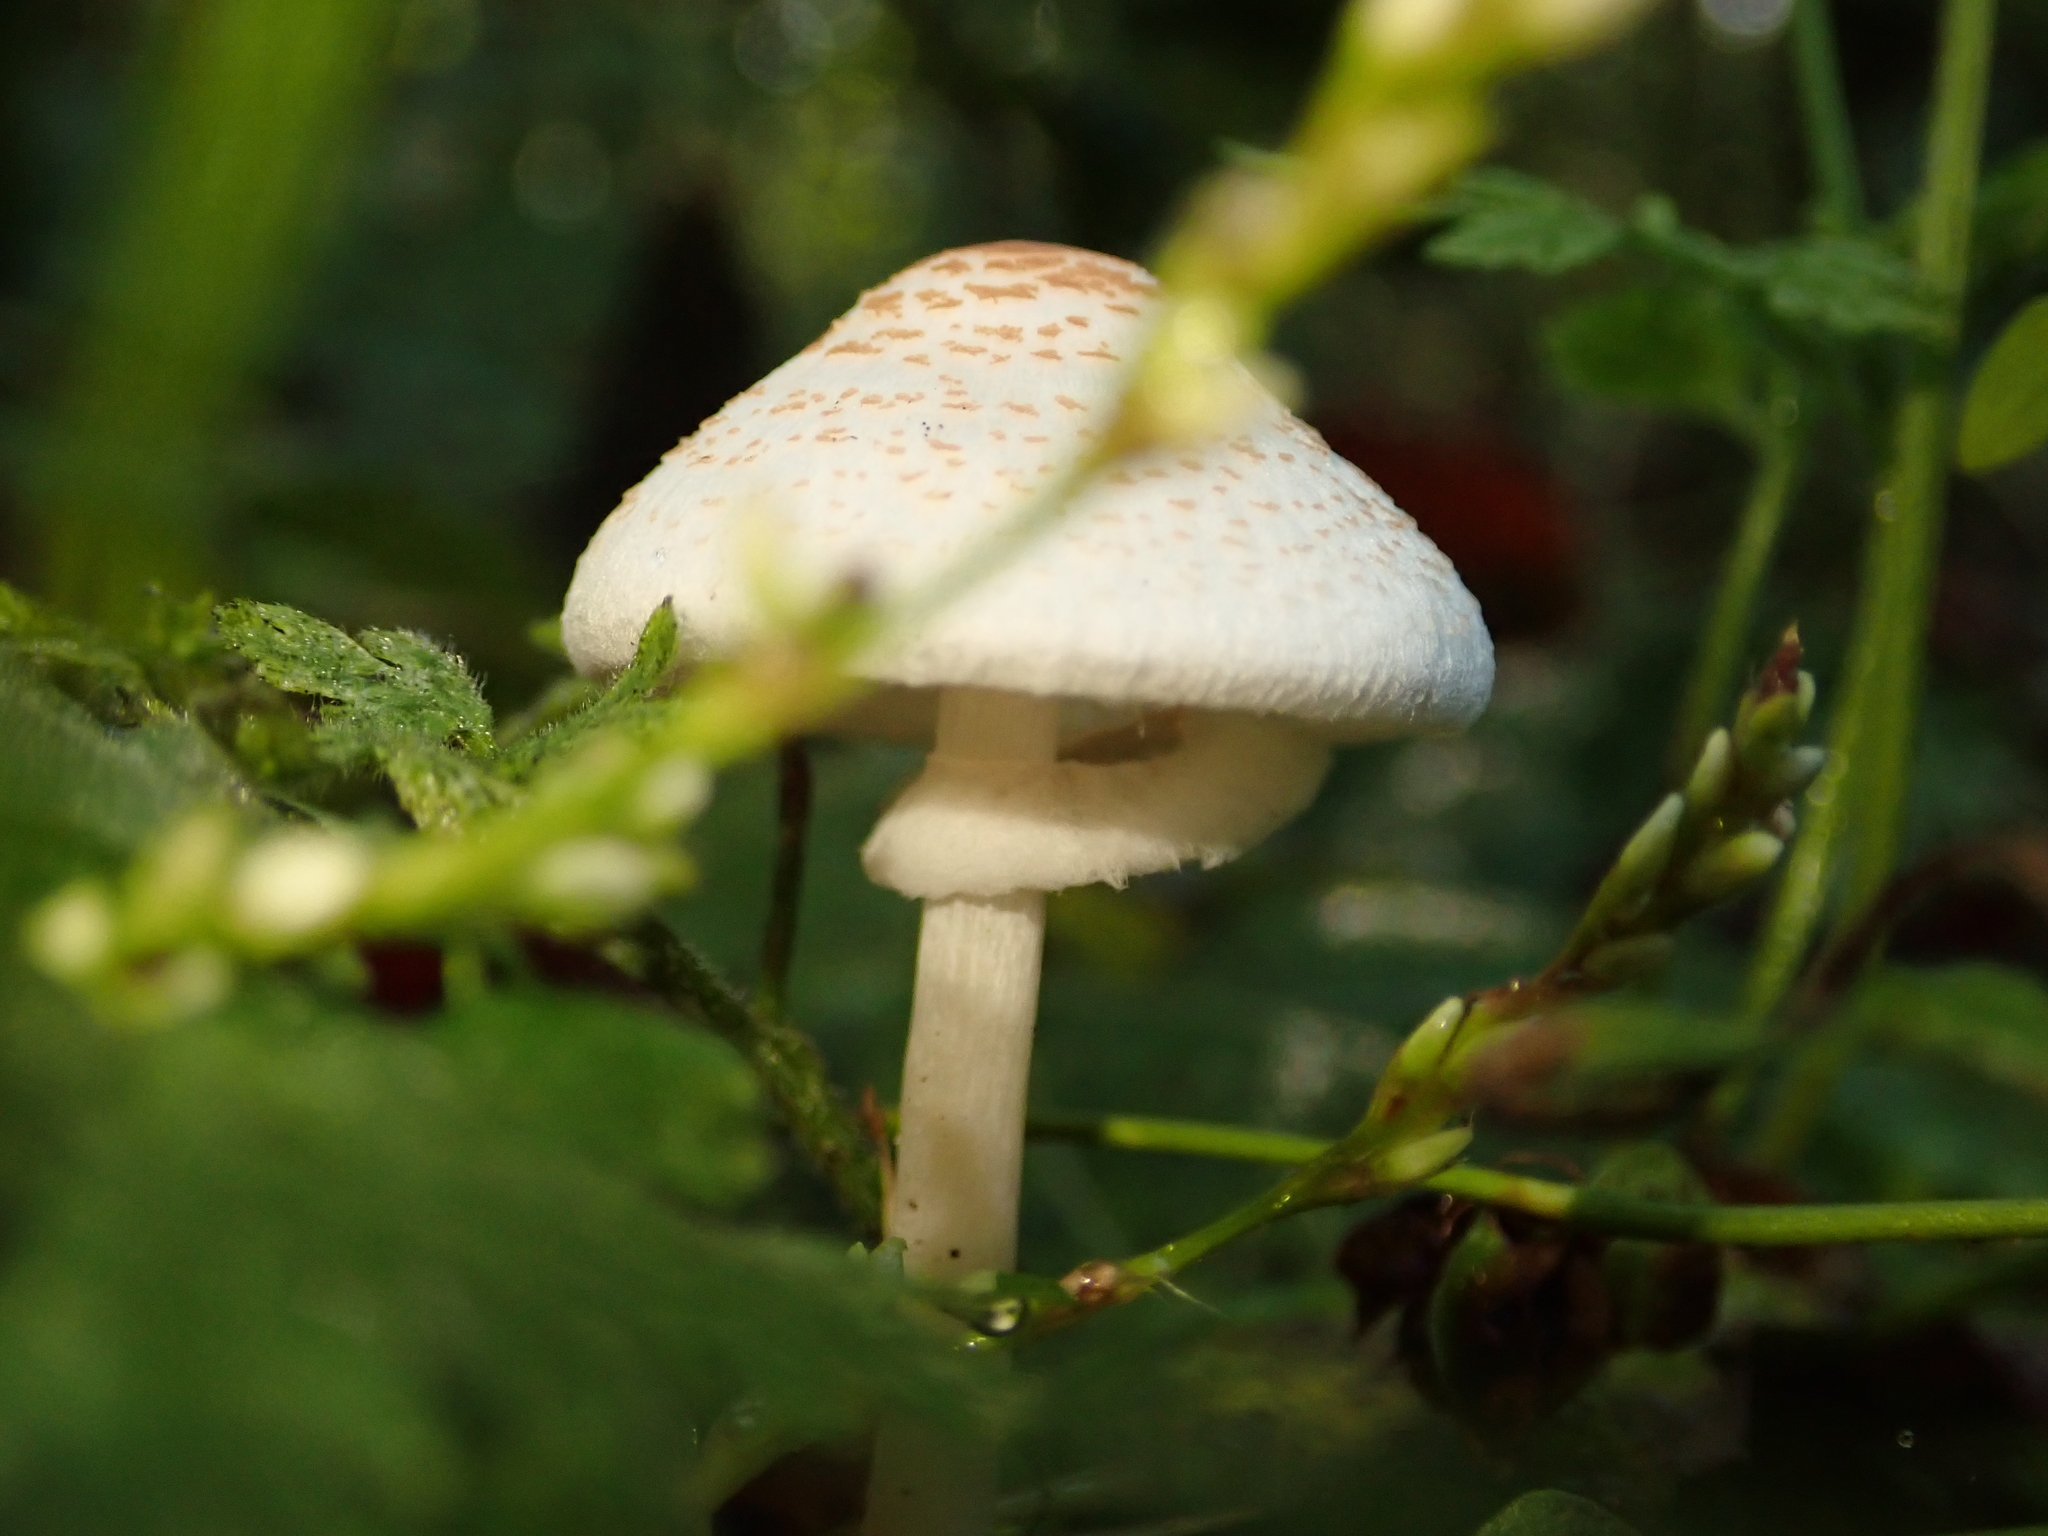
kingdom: Fungi
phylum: Basidiomycota
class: Agaricomycetes
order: Agaricales
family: Agaricaceae
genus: Lepiota
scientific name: Lepiota cristata
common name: Stinking dapperling
